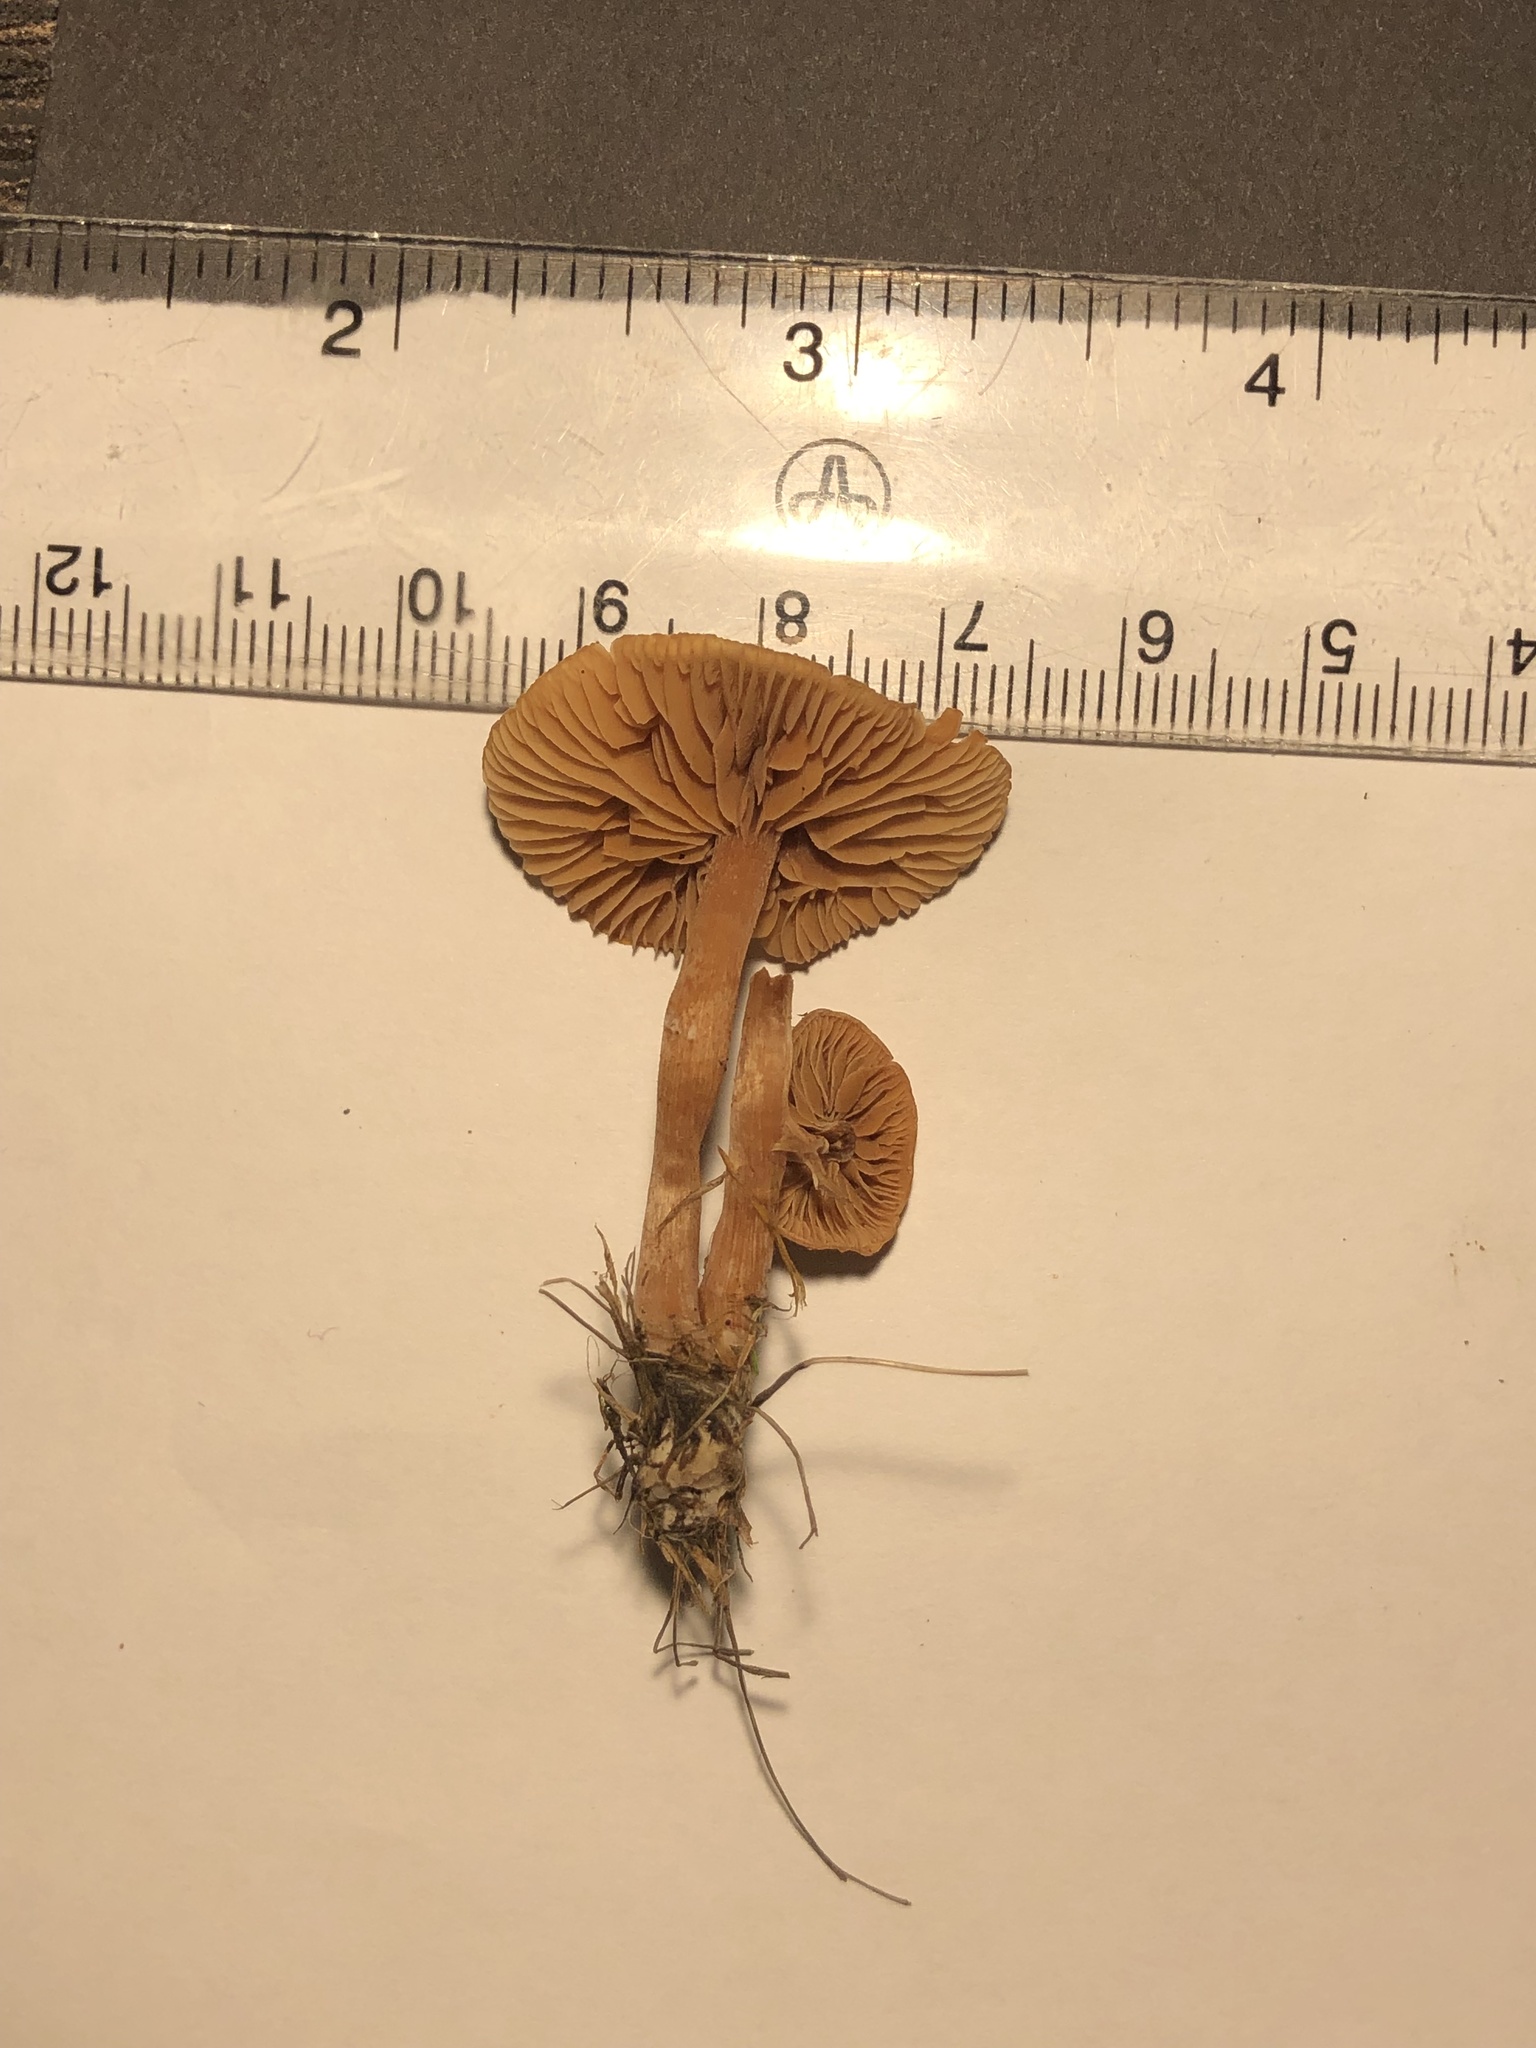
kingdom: Fungi
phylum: Basidiomycota
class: Agaricomycetes
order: Agaricales
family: Tubariaceae
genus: Tubaria
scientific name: Tubaria furfuracea
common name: Scurfy twiglet
